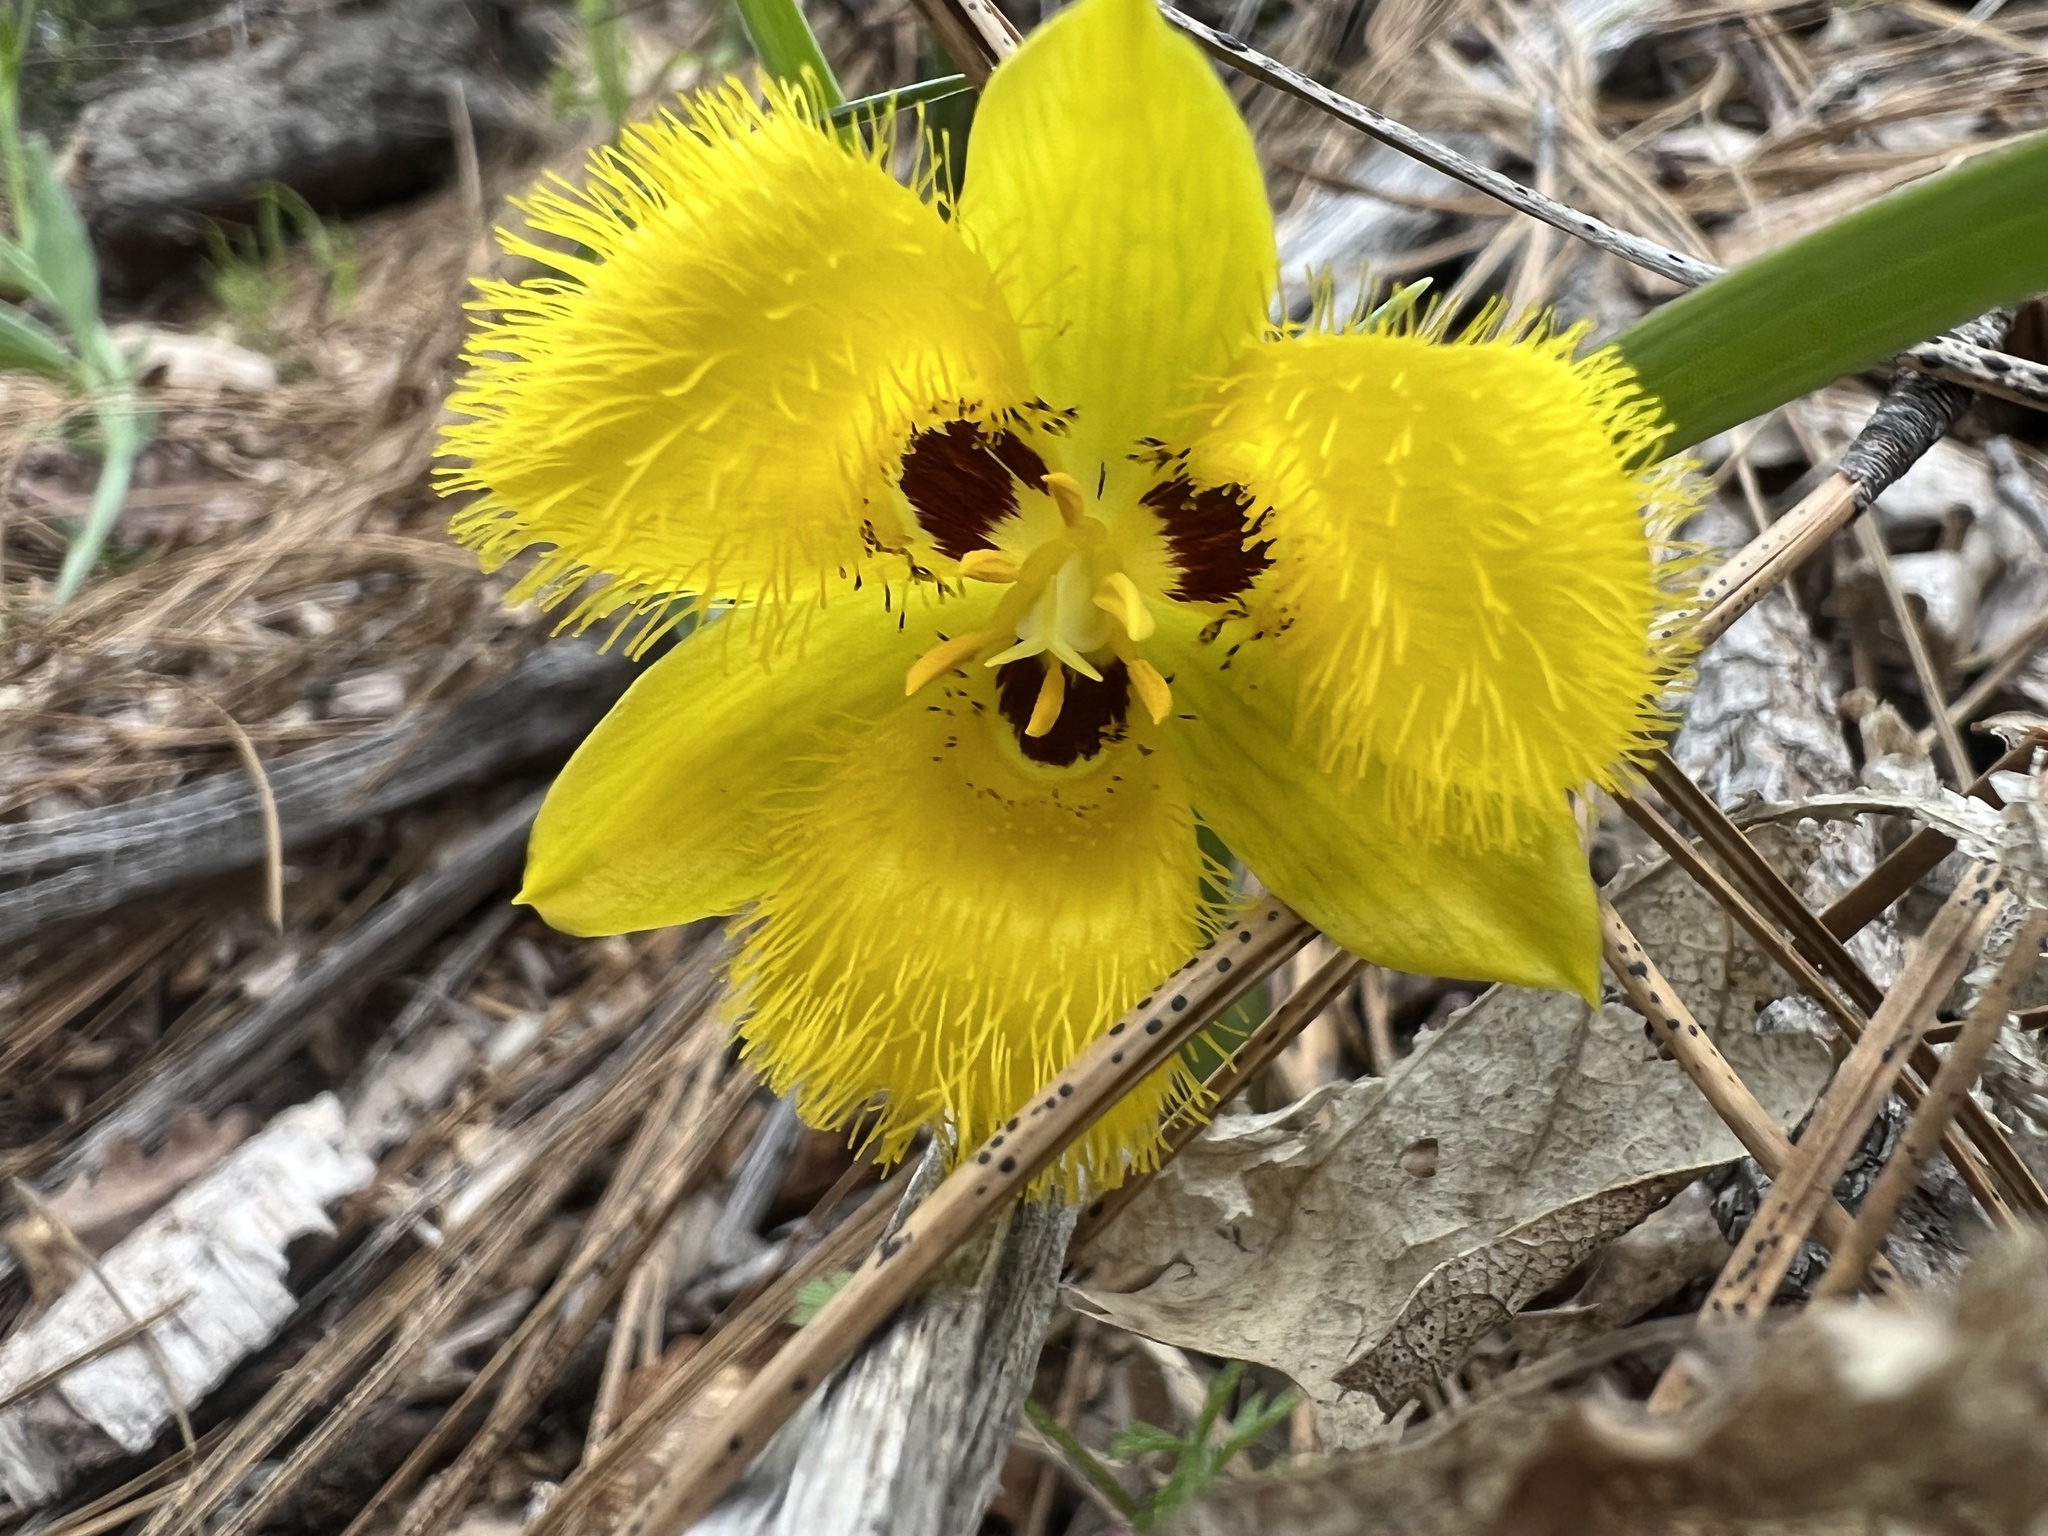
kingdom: Plantae
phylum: Tracheophyta
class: Liliopsida
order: Liliales
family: Liliaceae
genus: Calochortus
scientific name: Calochortus monophyllus
